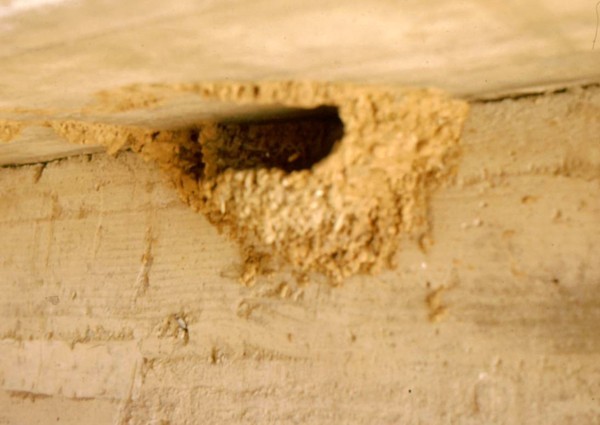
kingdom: Animalia
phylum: Chordata
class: Aves
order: Passeriformes
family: Hirundinidae
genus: Ptyonoprogne
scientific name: Ptyonoprogne fuligula
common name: Rock martin
